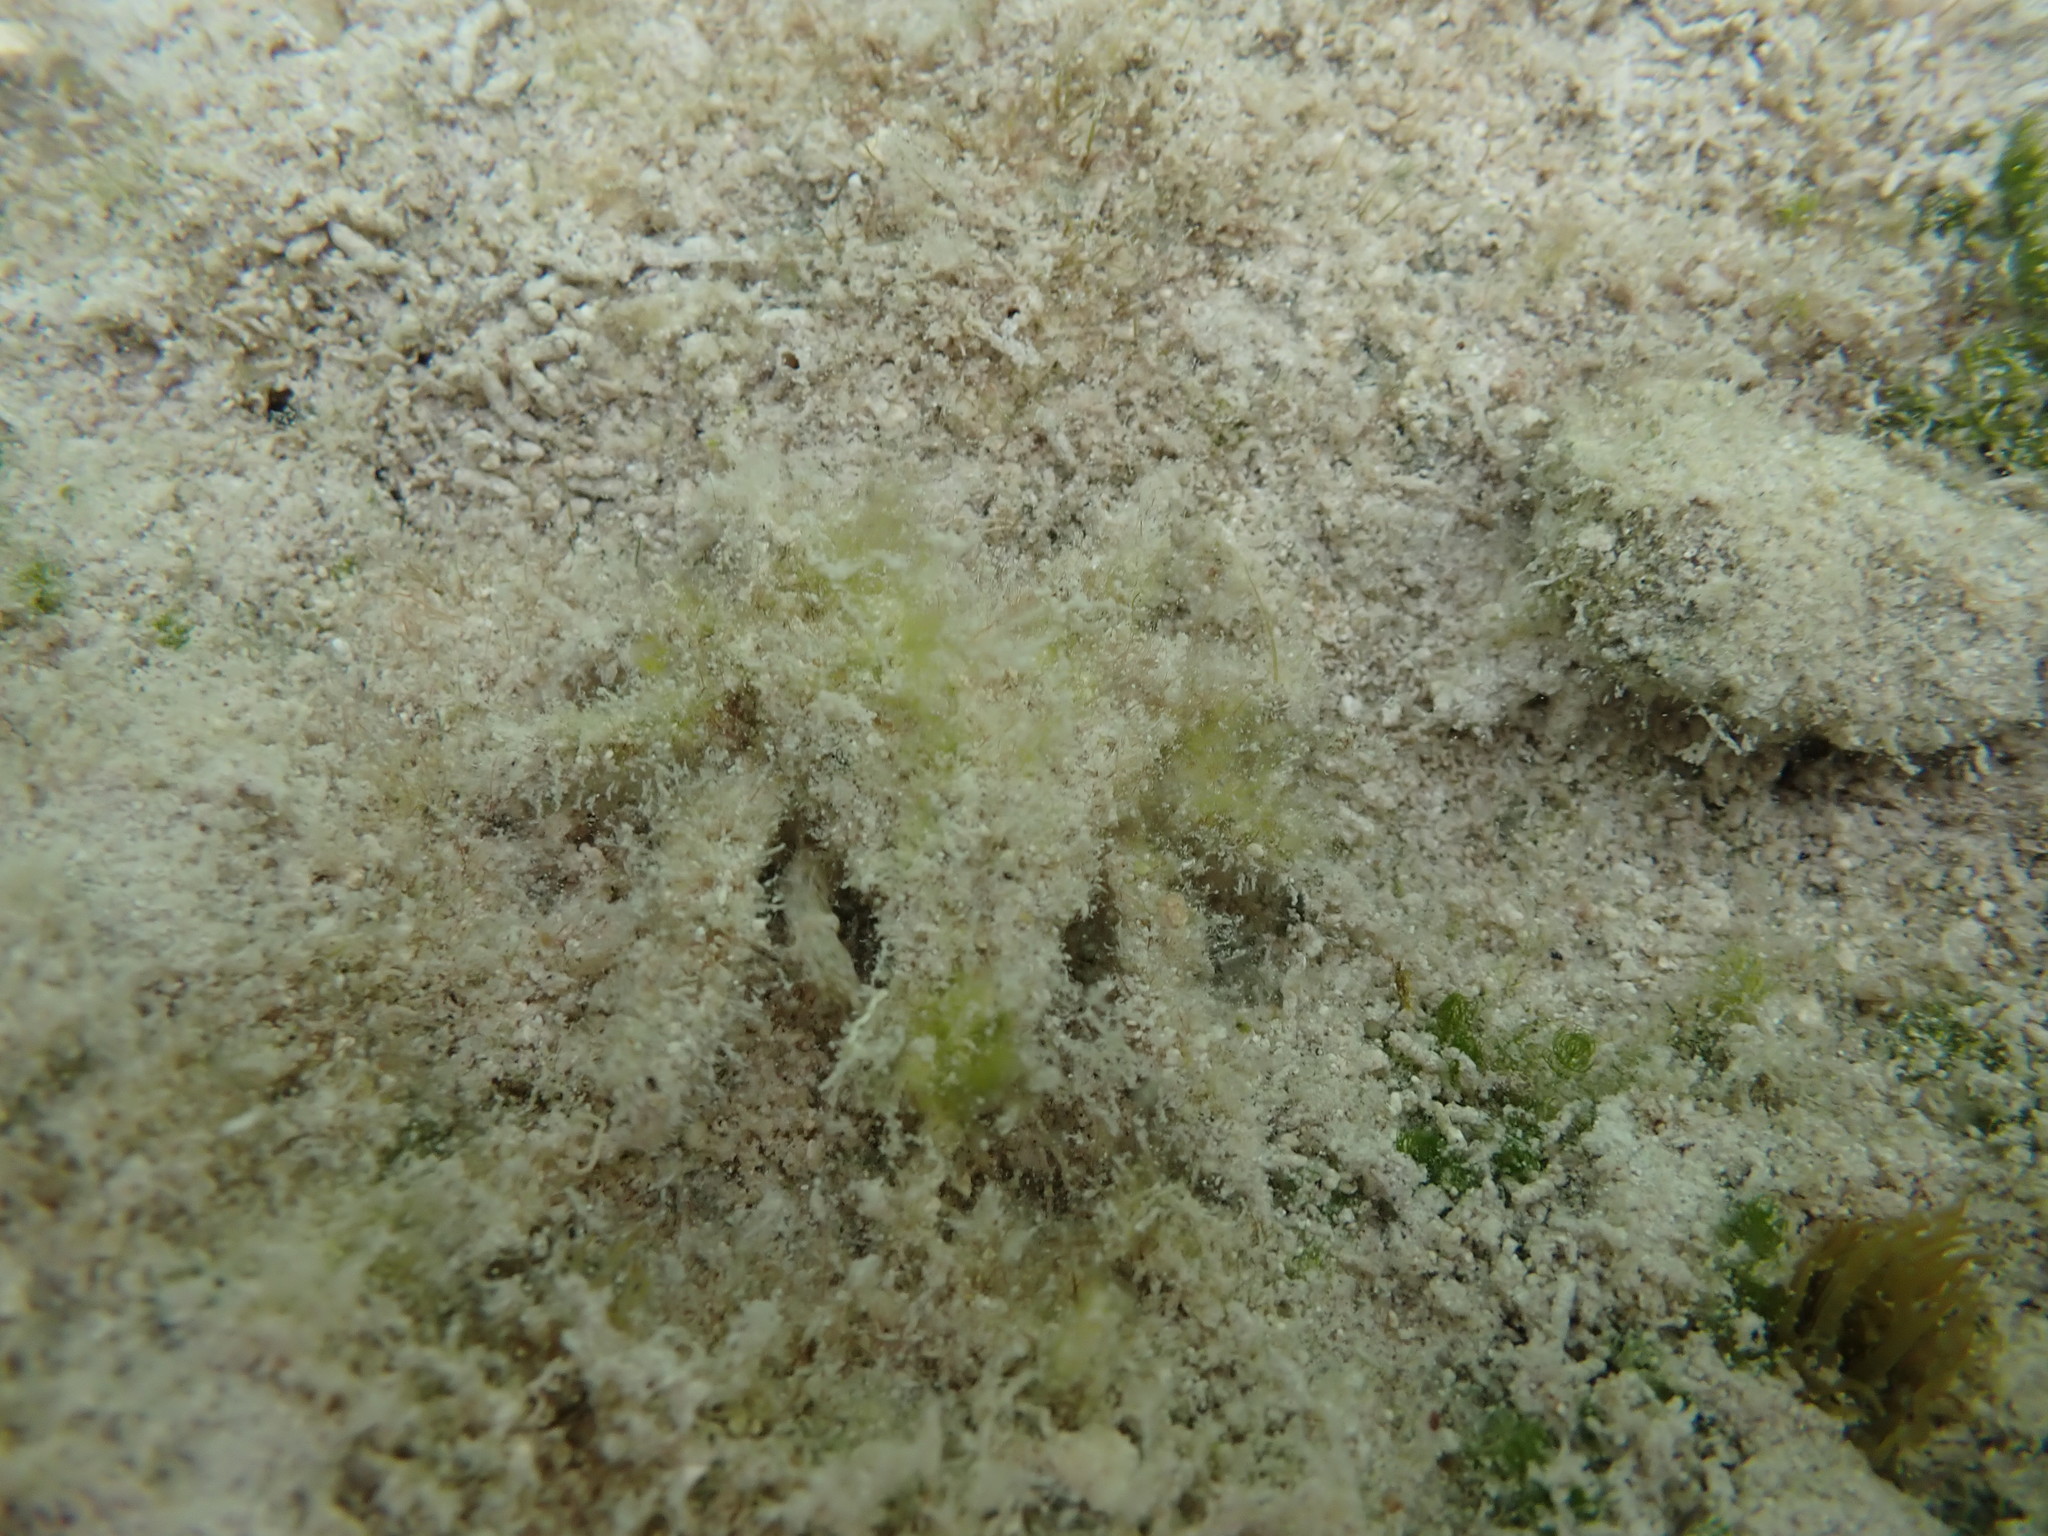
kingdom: Animalia
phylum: Arthropoda
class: Malacostraca
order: Decapoda
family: Mithracidae
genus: Omalacantha
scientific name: Omalacantha bicornuta
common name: Two-horned spider crab
